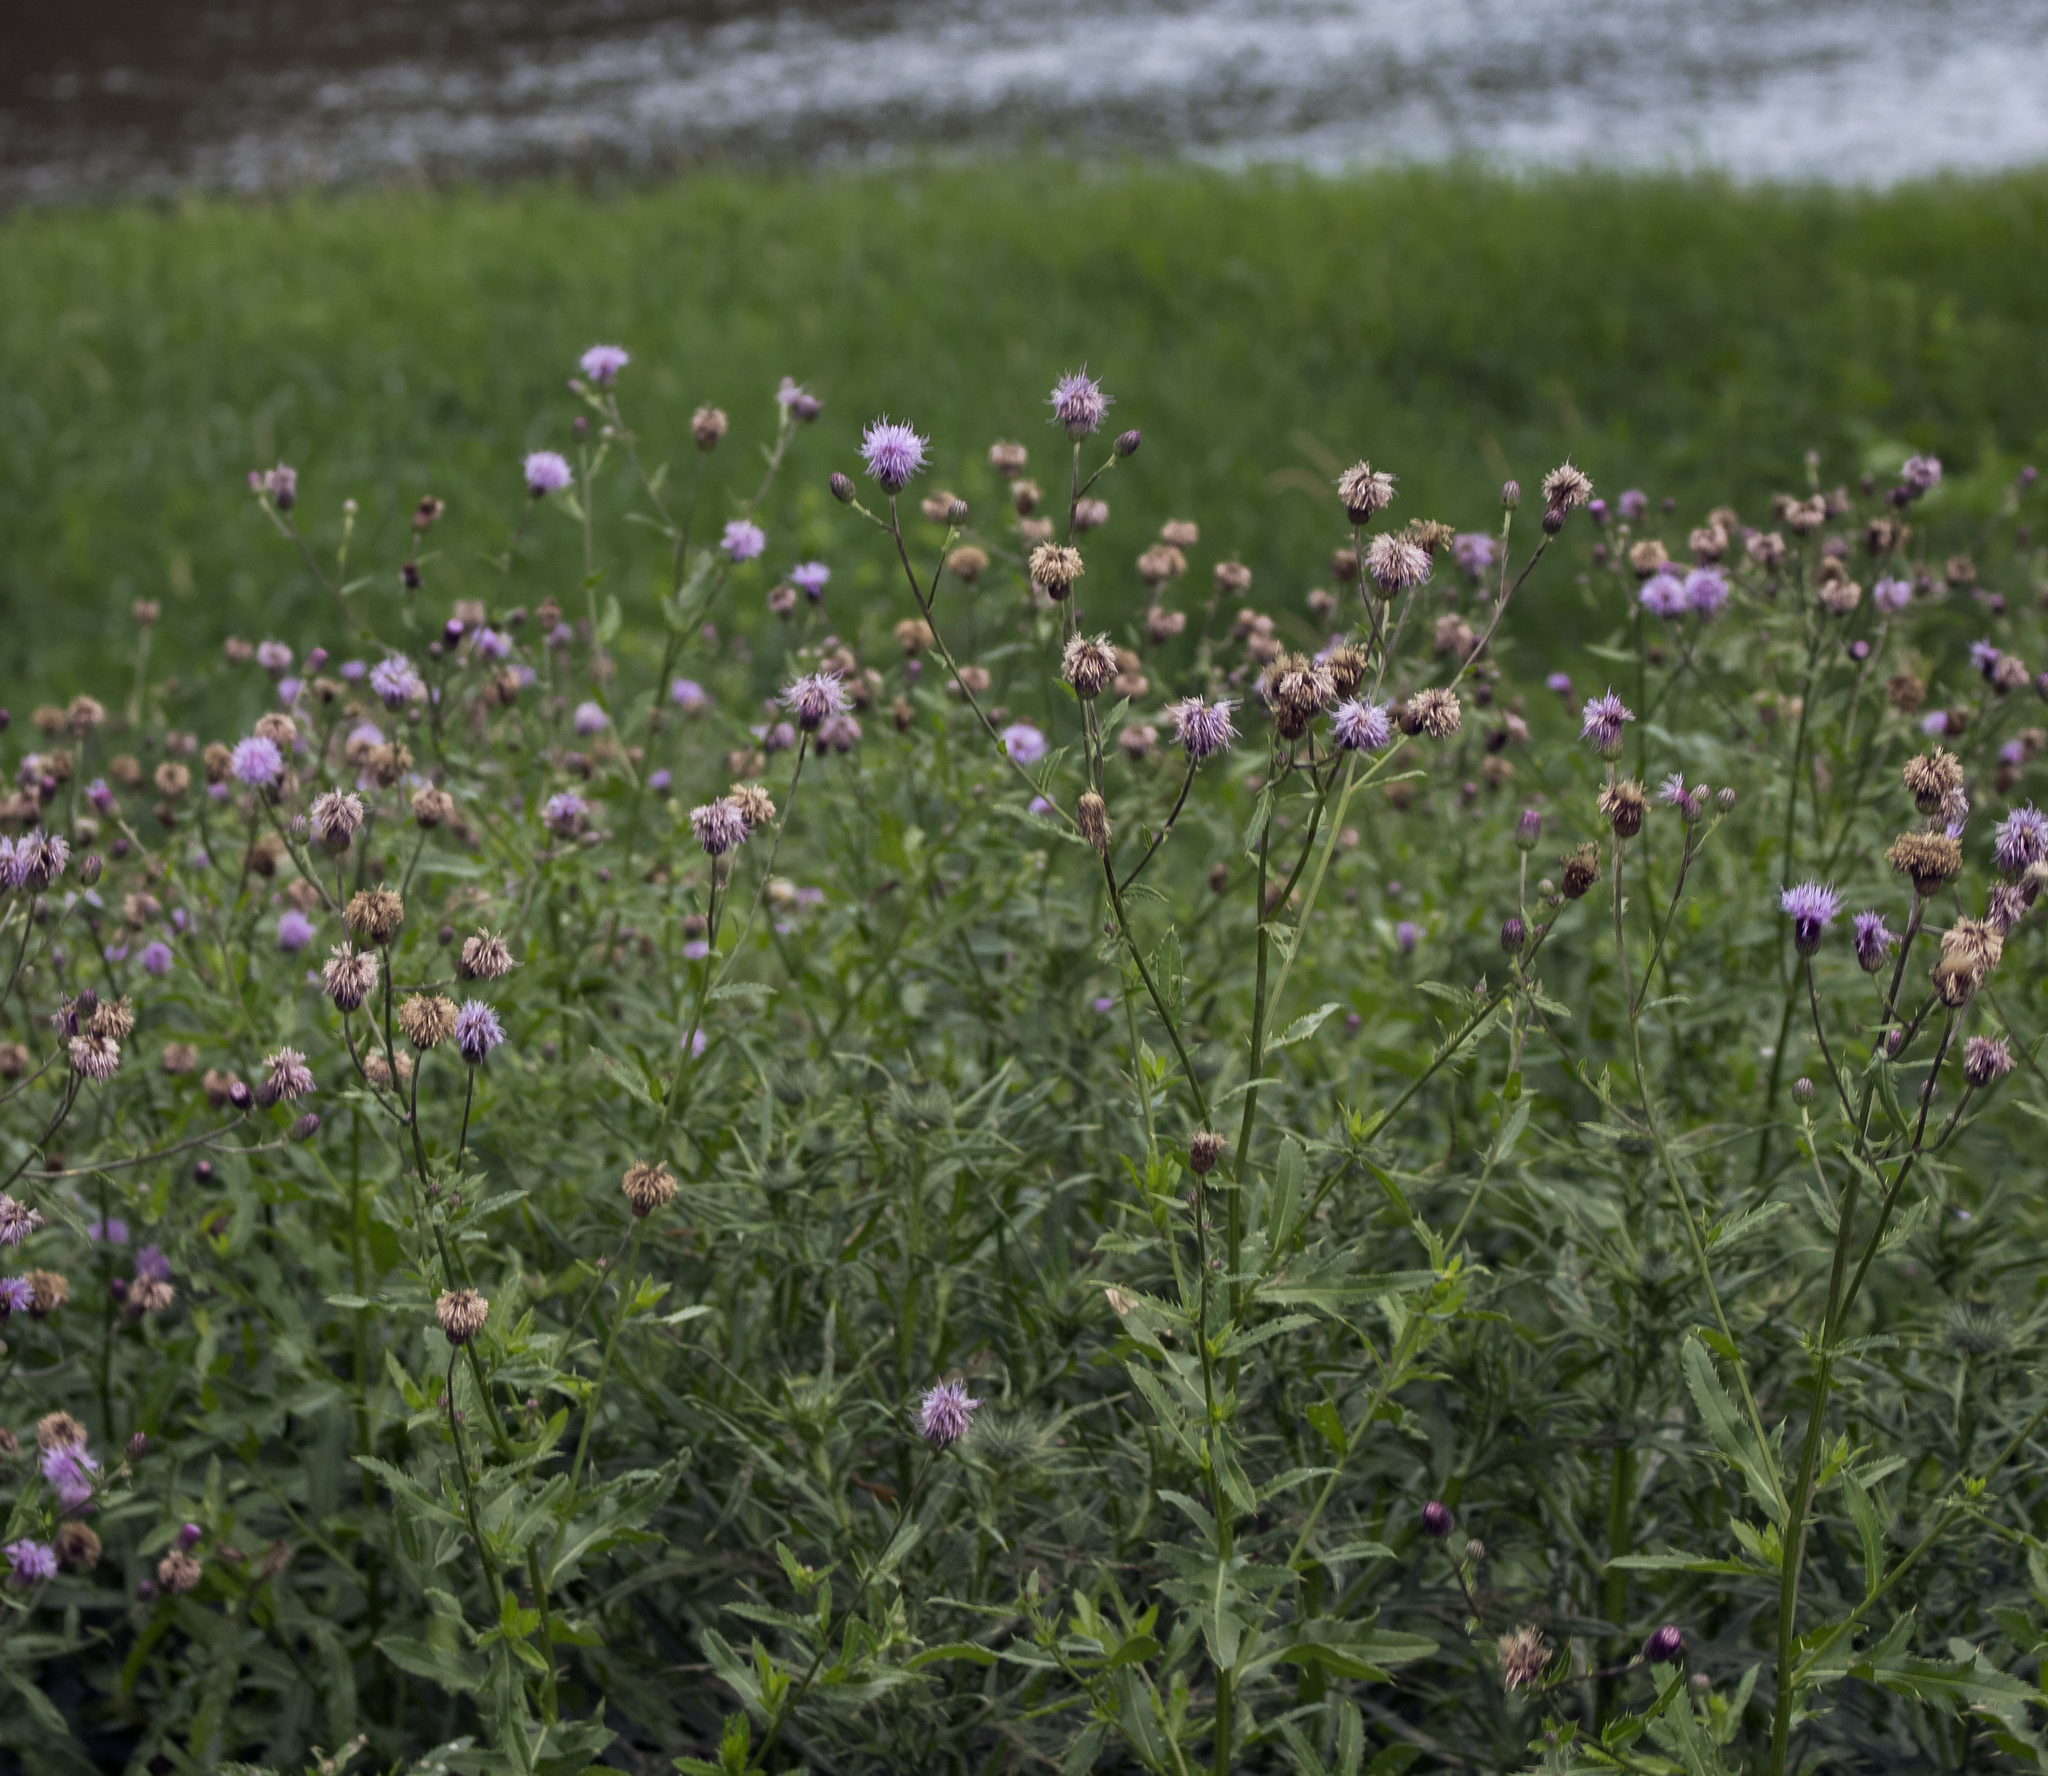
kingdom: Plantae
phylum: Tracheophyta
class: Magnoliopsida
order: Asterales
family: Asteraceae
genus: Cirsium
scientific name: Cirsium arvense
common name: Creeping thistle
